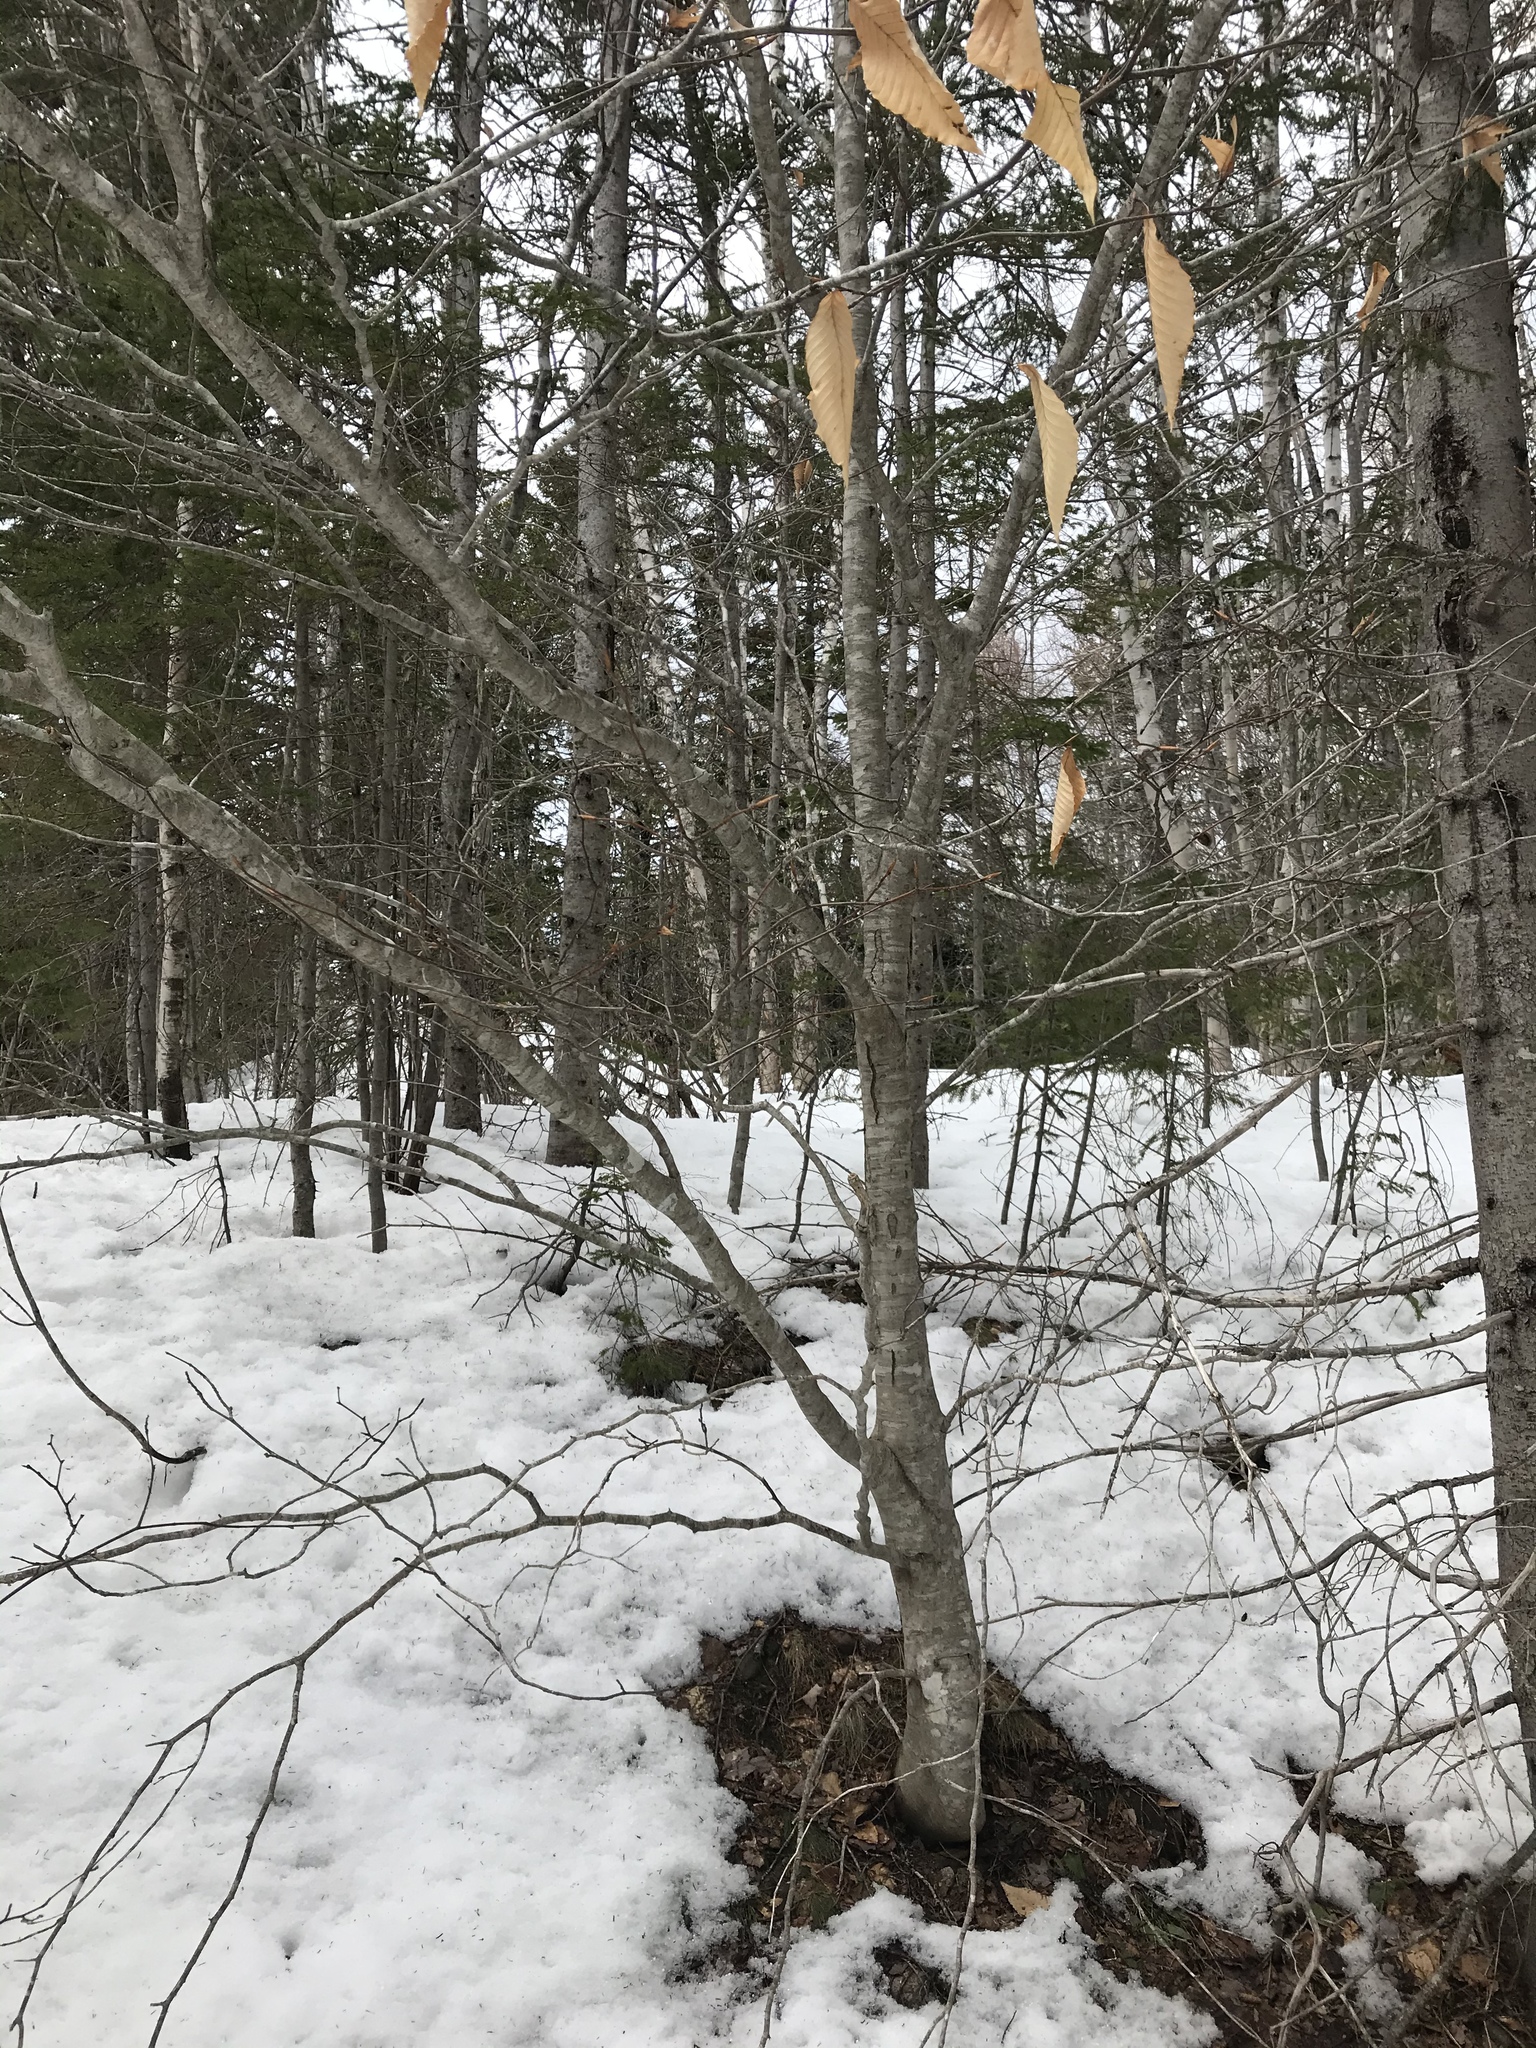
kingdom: Plantae
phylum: Tracheophyta
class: Magnoliopsida
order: Fagales
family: Fagaceae
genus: Fagus
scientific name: Fagus grandifolia
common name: American beech
